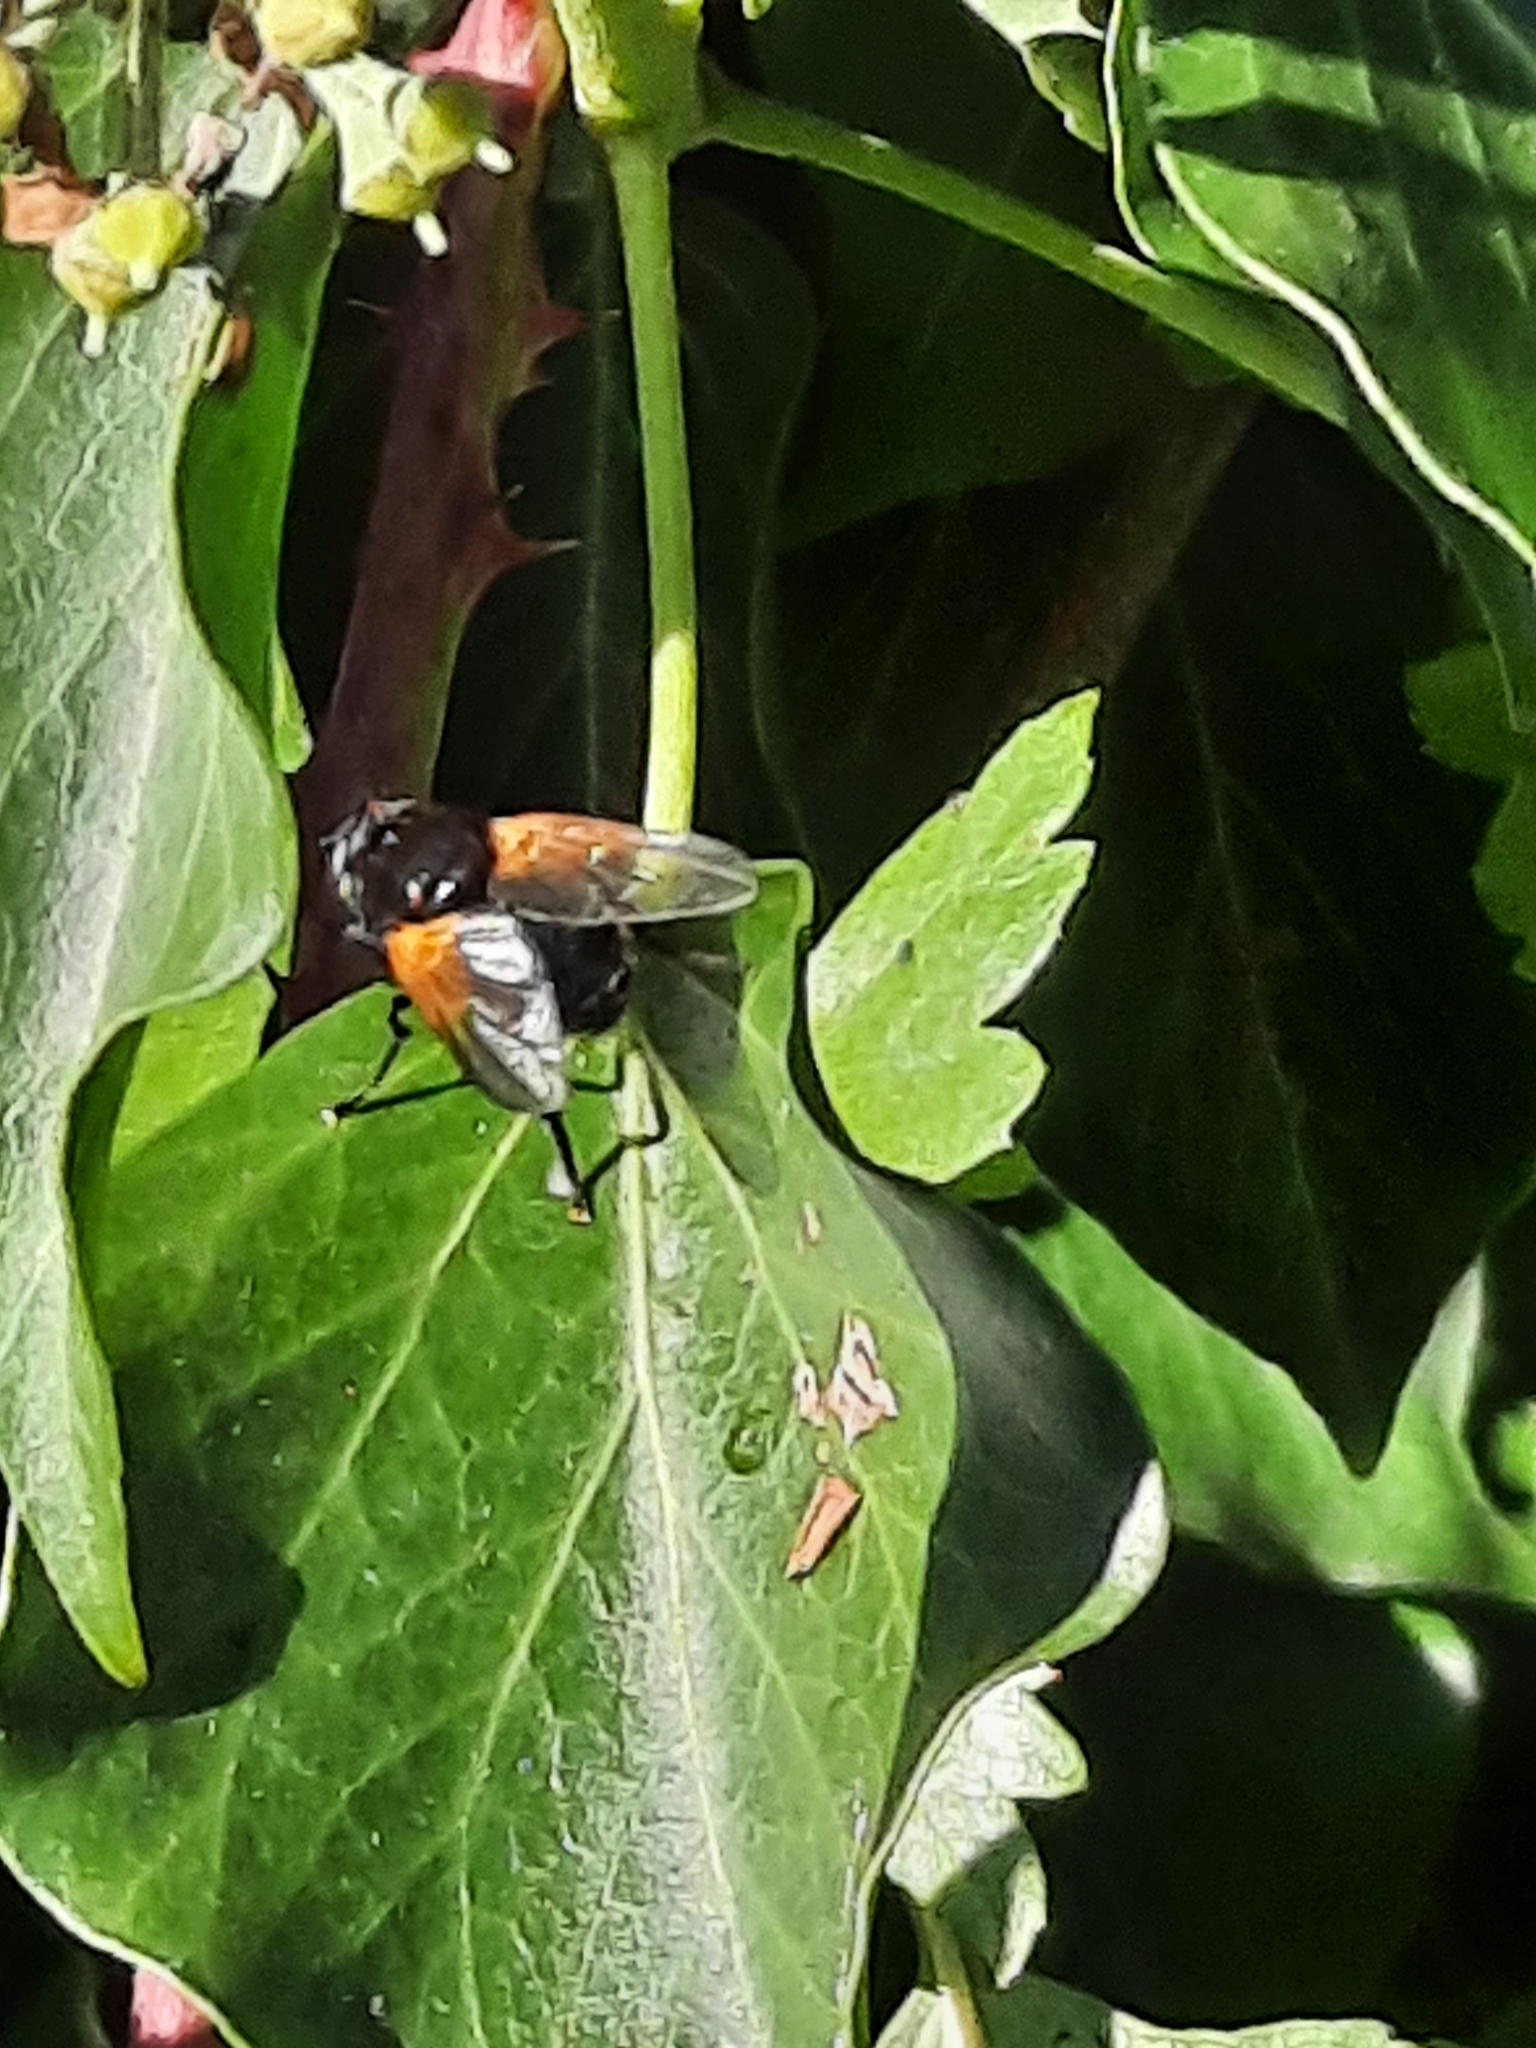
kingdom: Animalia
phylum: Arthropoda
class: Insecta
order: Diptera
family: Muscidae
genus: Mesembrina
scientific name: Mesembrina meridiana
